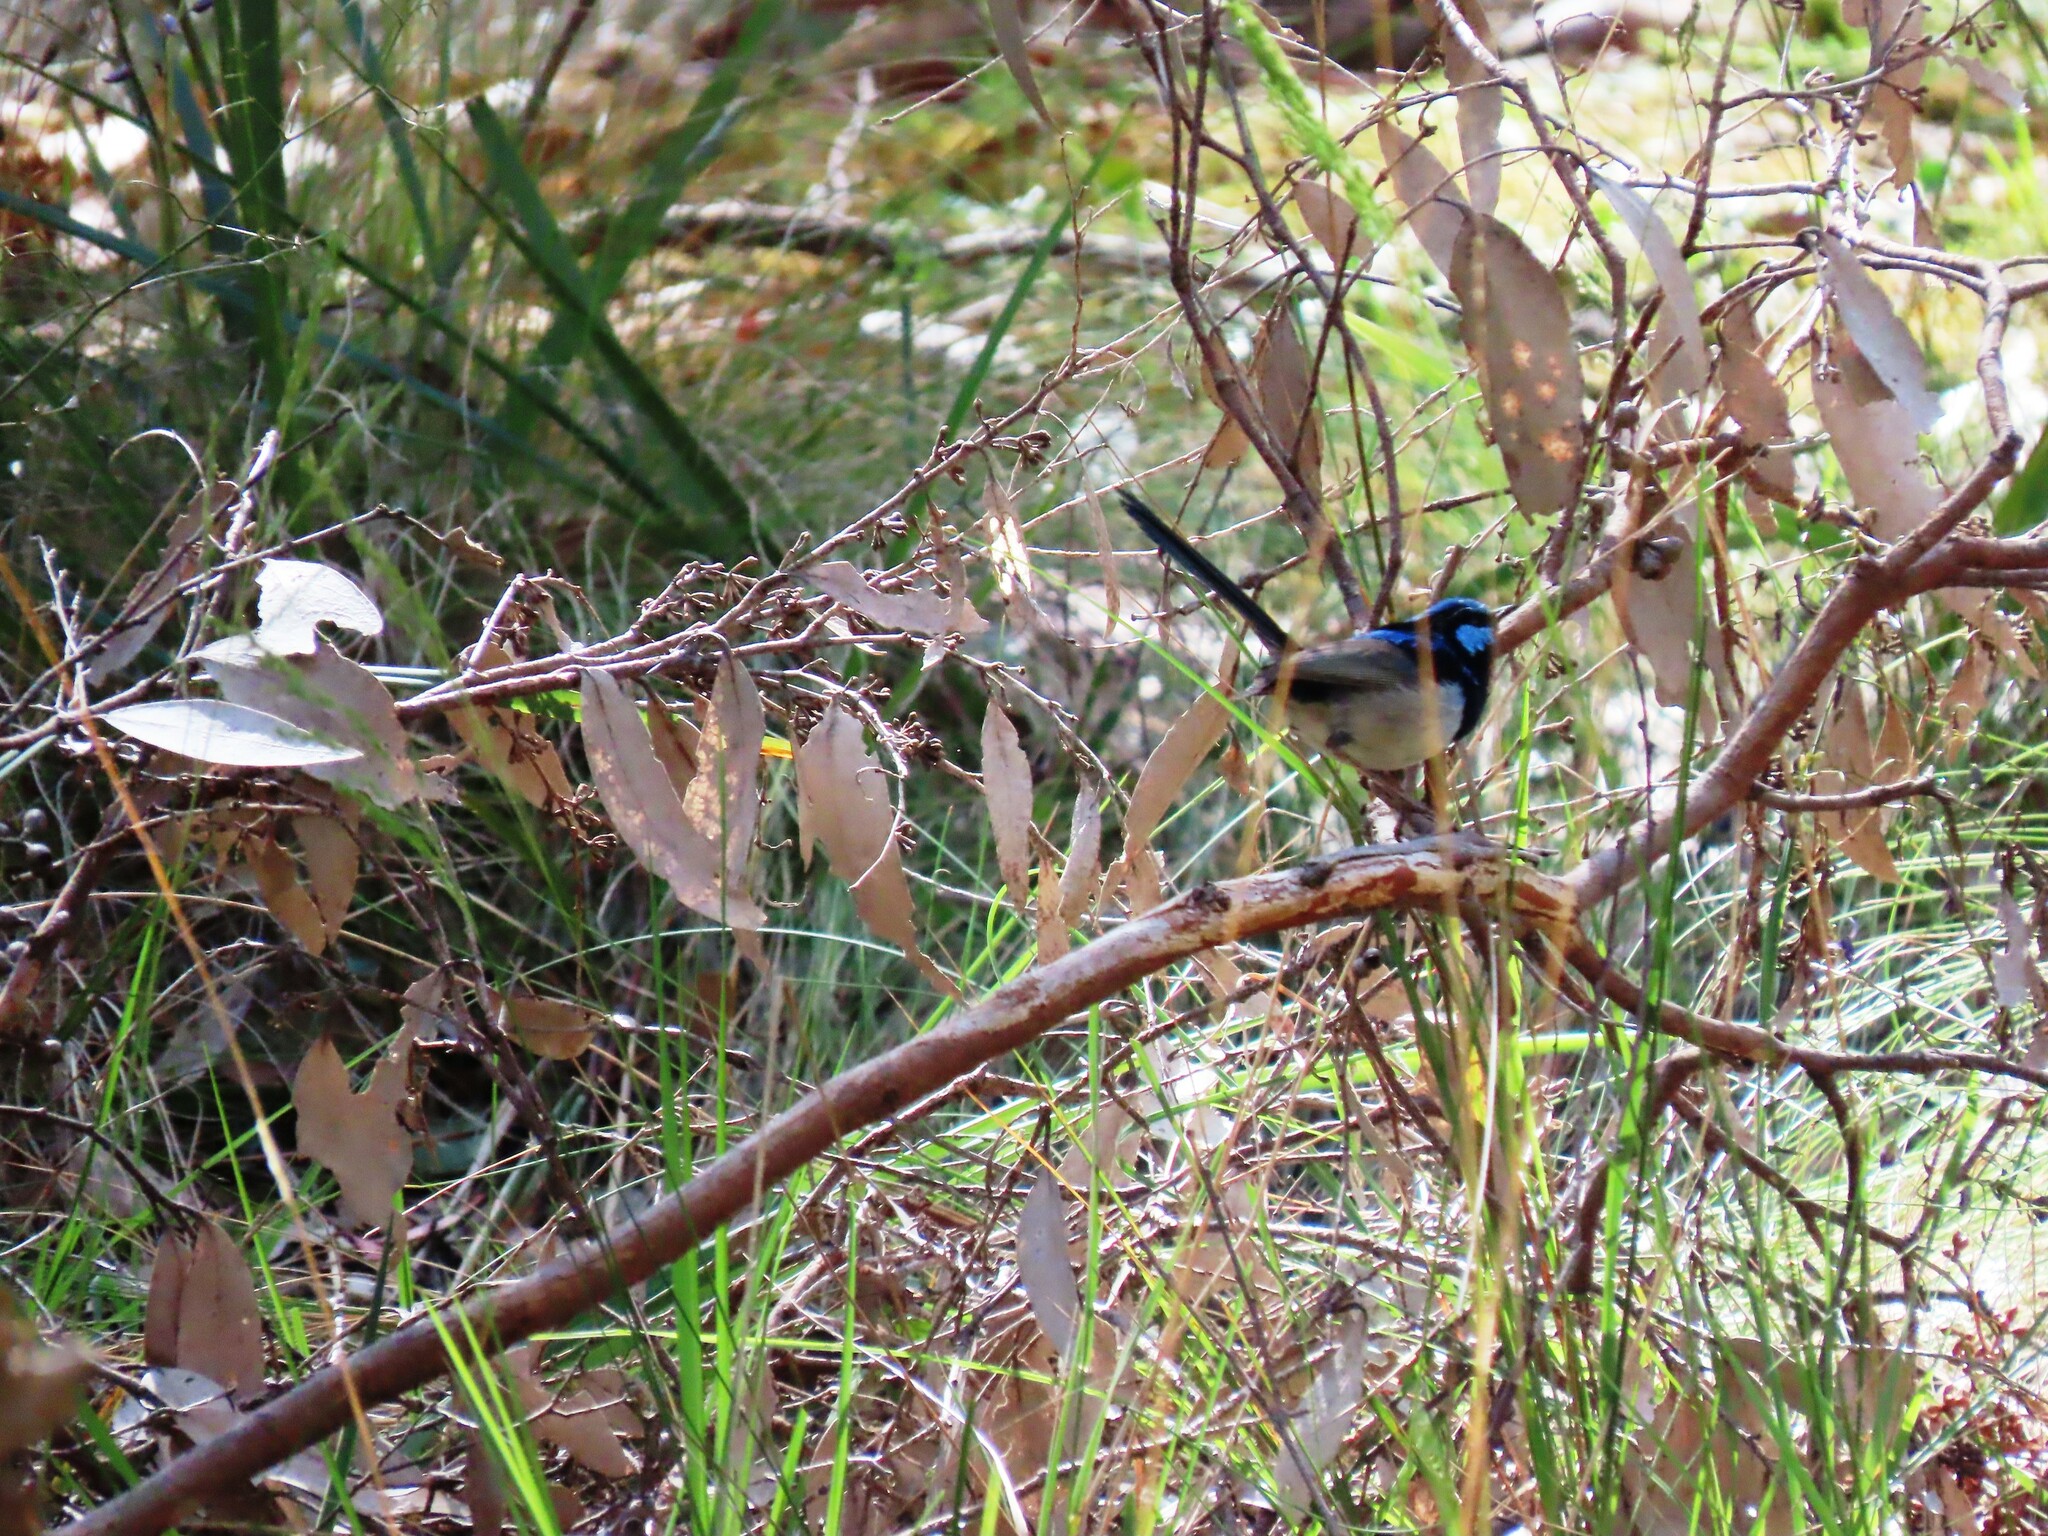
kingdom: Animalia
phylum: Chordata
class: Aves
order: Passeriformes
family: Maluridae
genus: Malurus
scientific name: Malurus cyaneus
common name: Superb fairywren
